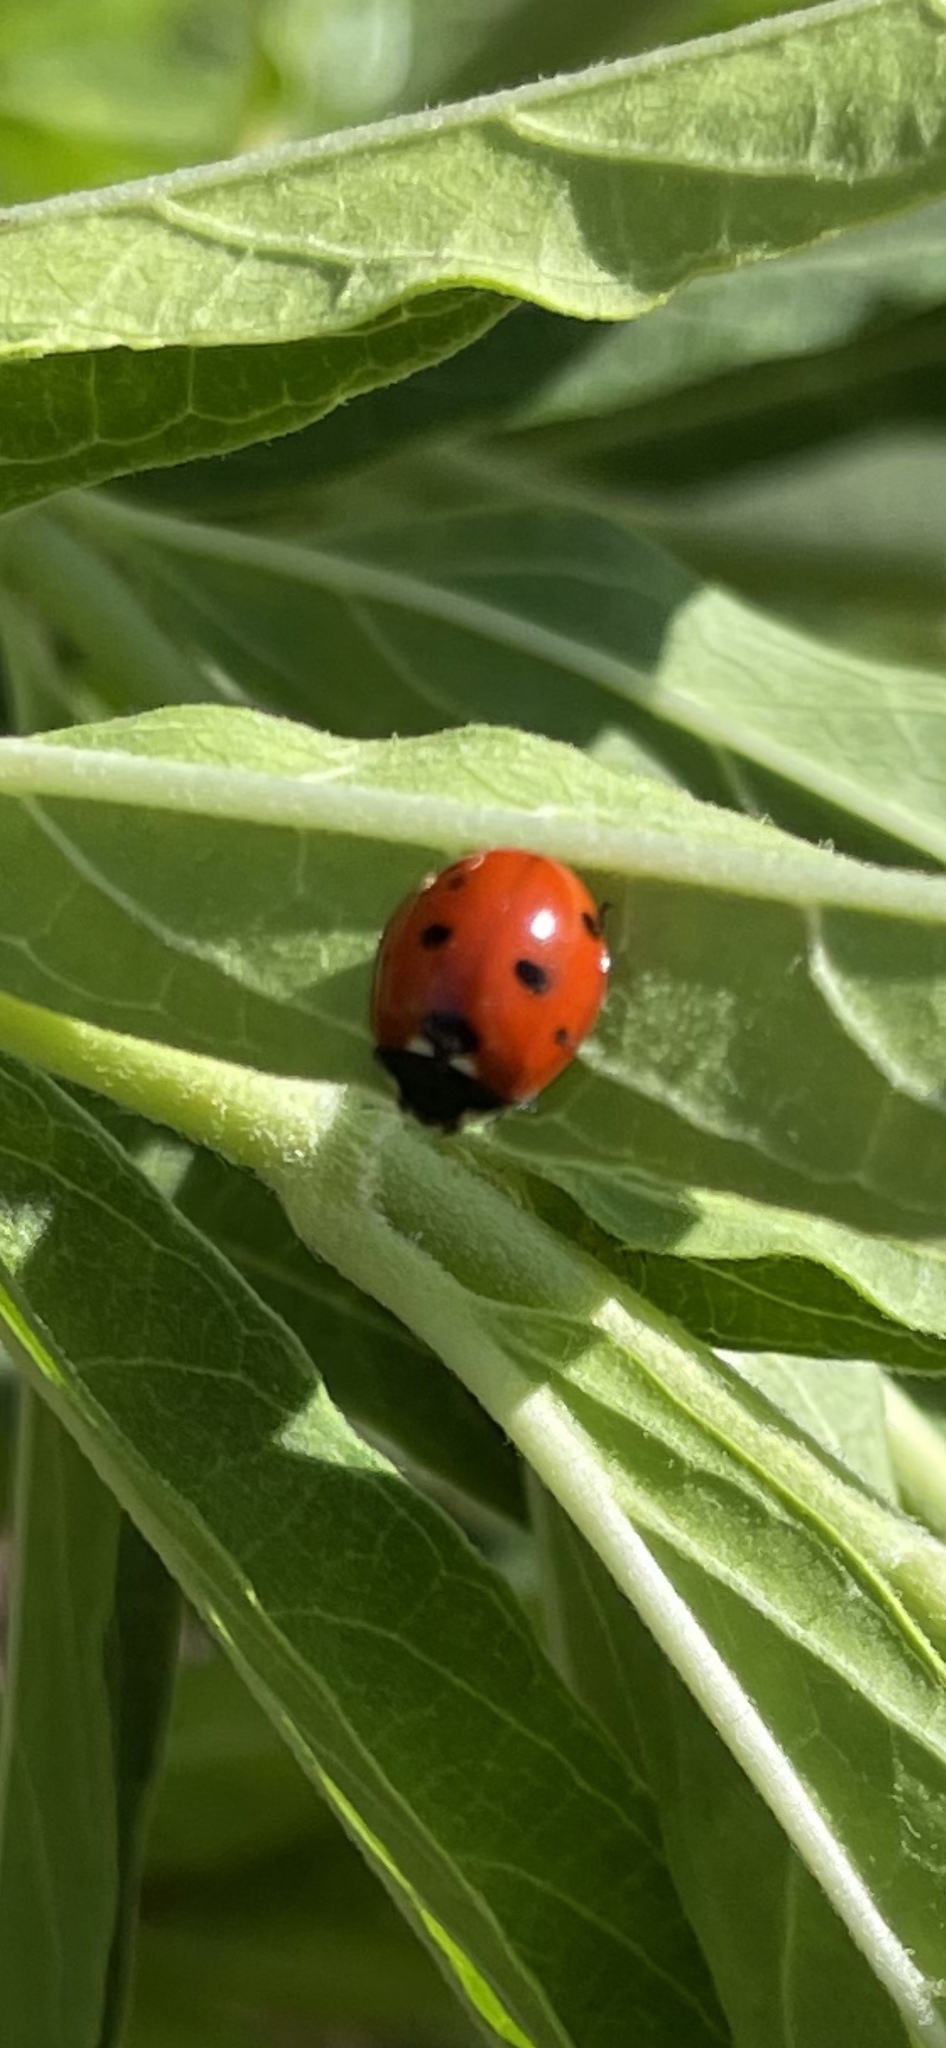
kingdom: Animalia
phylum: Arthropoda
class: Insecta
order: Coleoptera
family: Coccinellidae
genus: Coccinella
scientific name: Coccinella septempunctata
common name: Sevenspotted lady beetle
